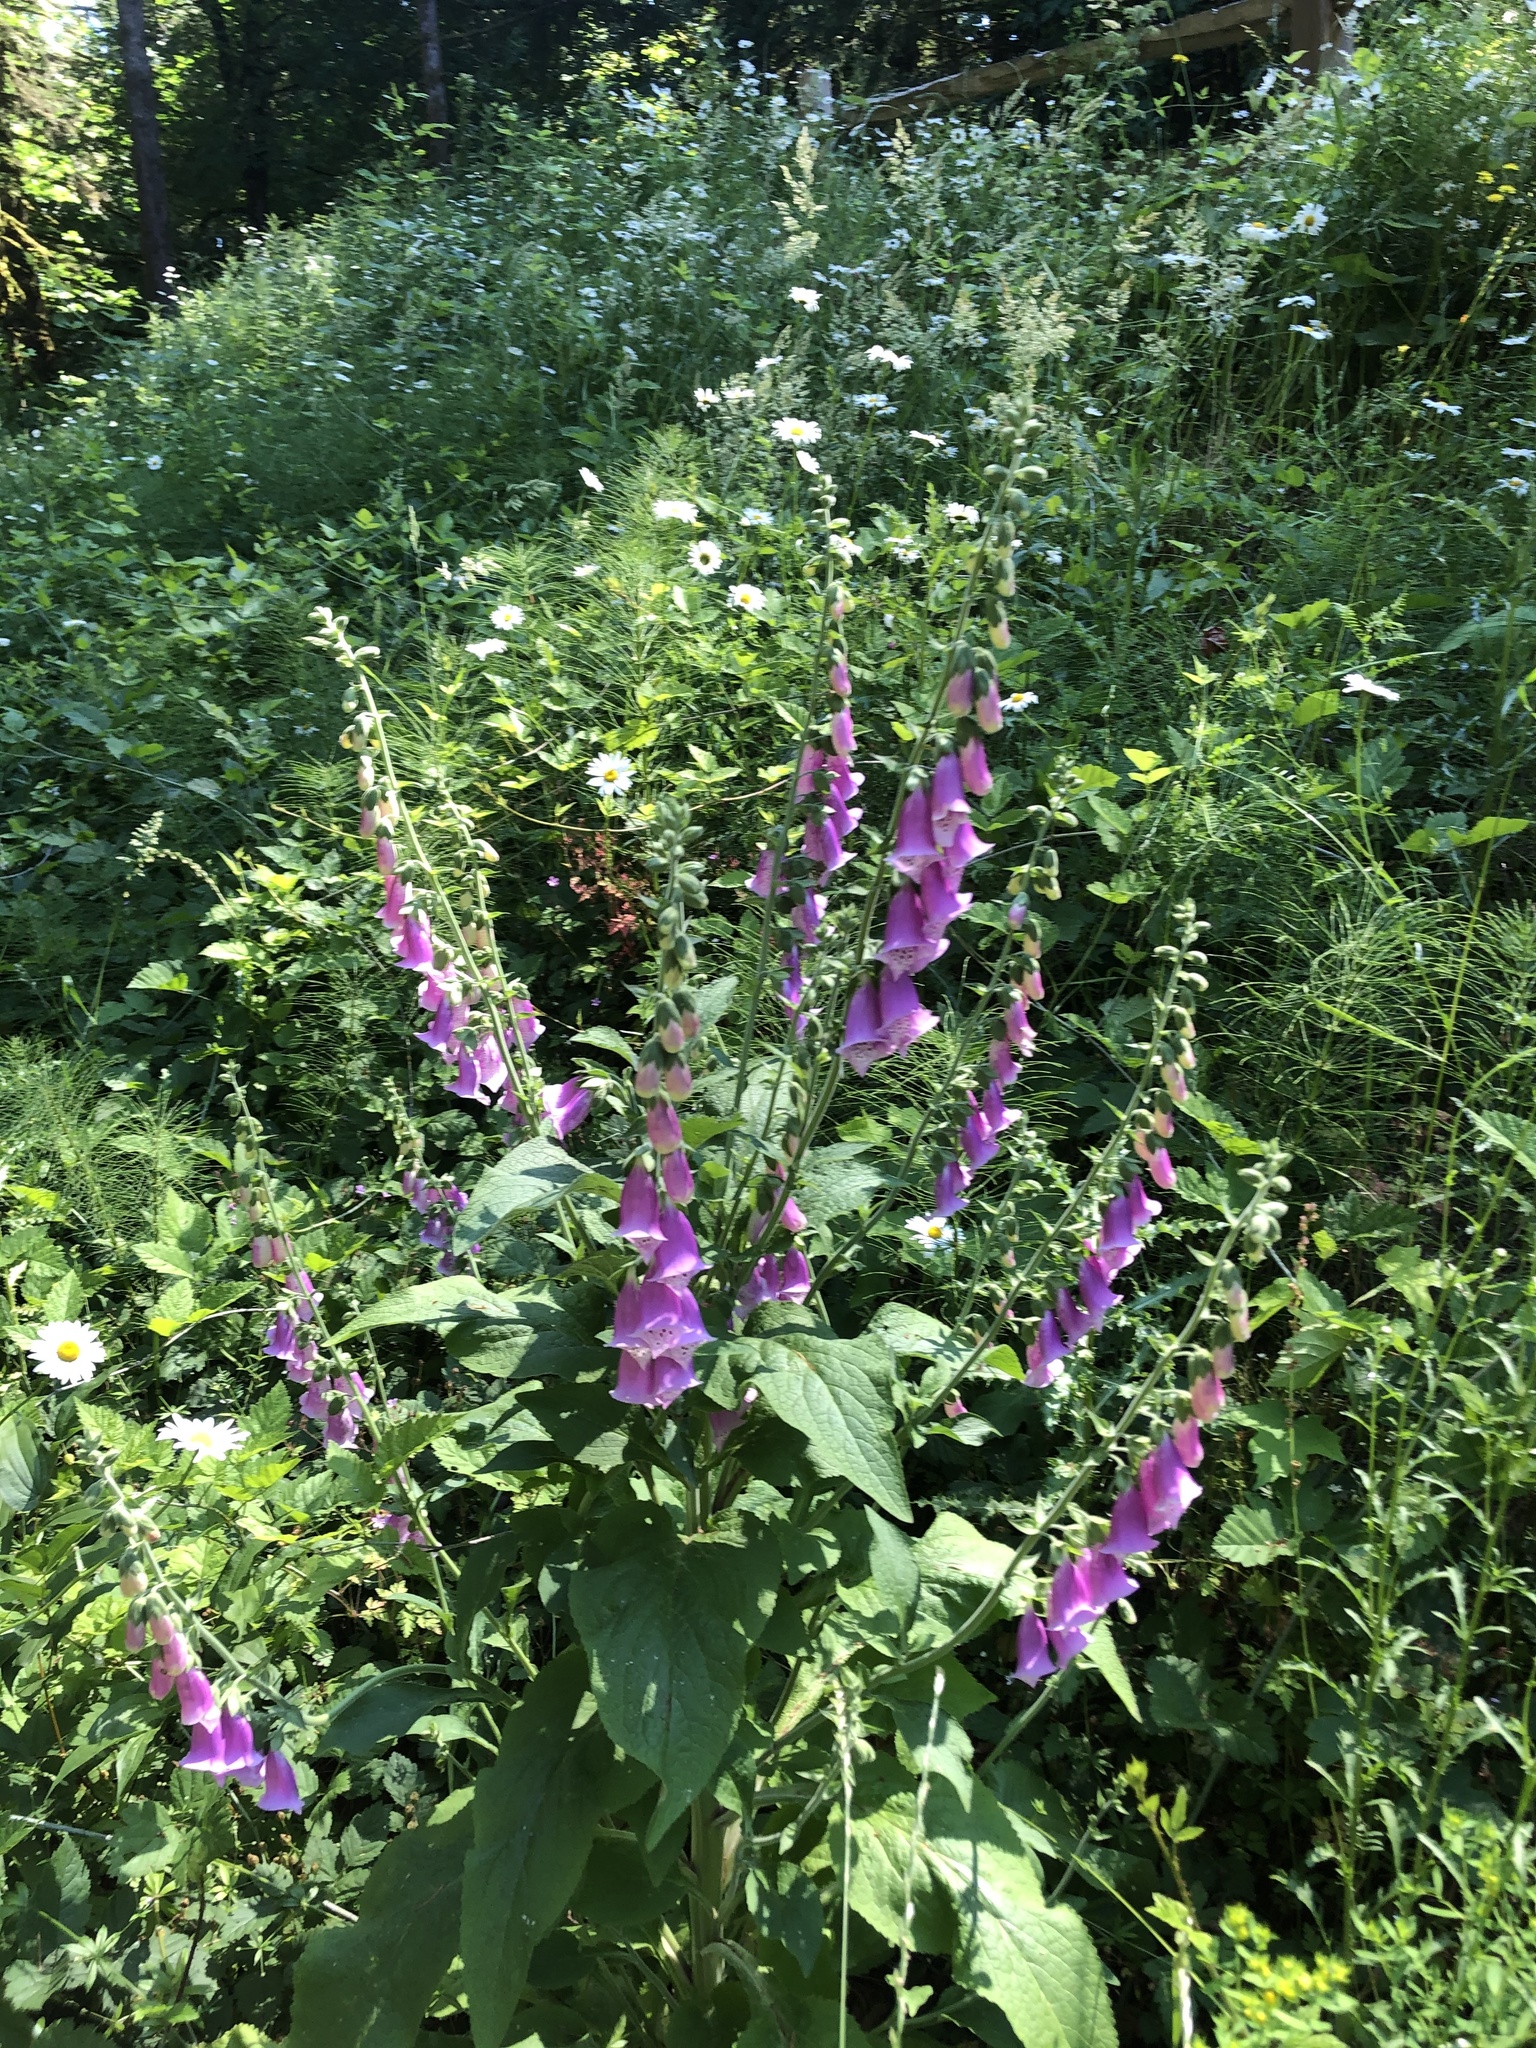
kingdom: Plantae
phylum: Tracheophyta
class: Magnoliopsida
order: Lamiales
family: Plantaginaceae
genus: Digitalis
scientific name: Digitalis purpurea
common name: Foxglove
